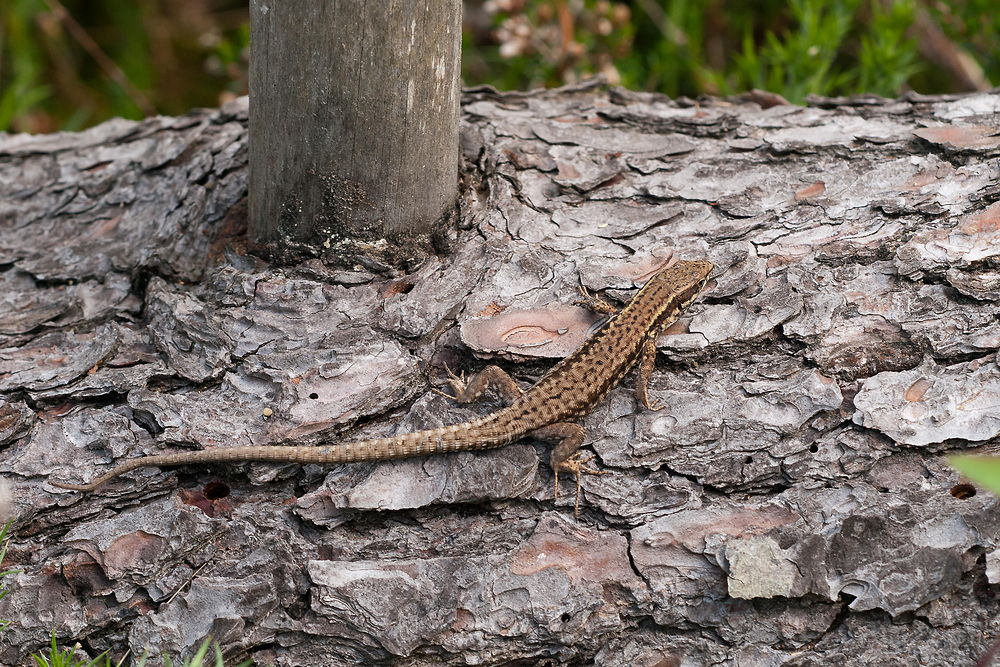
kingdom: Animalia
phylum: Chordata
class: Squamata
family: Lacertidae
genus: Podarcis
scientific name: Podarcis muralis
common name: Common wall lizard
